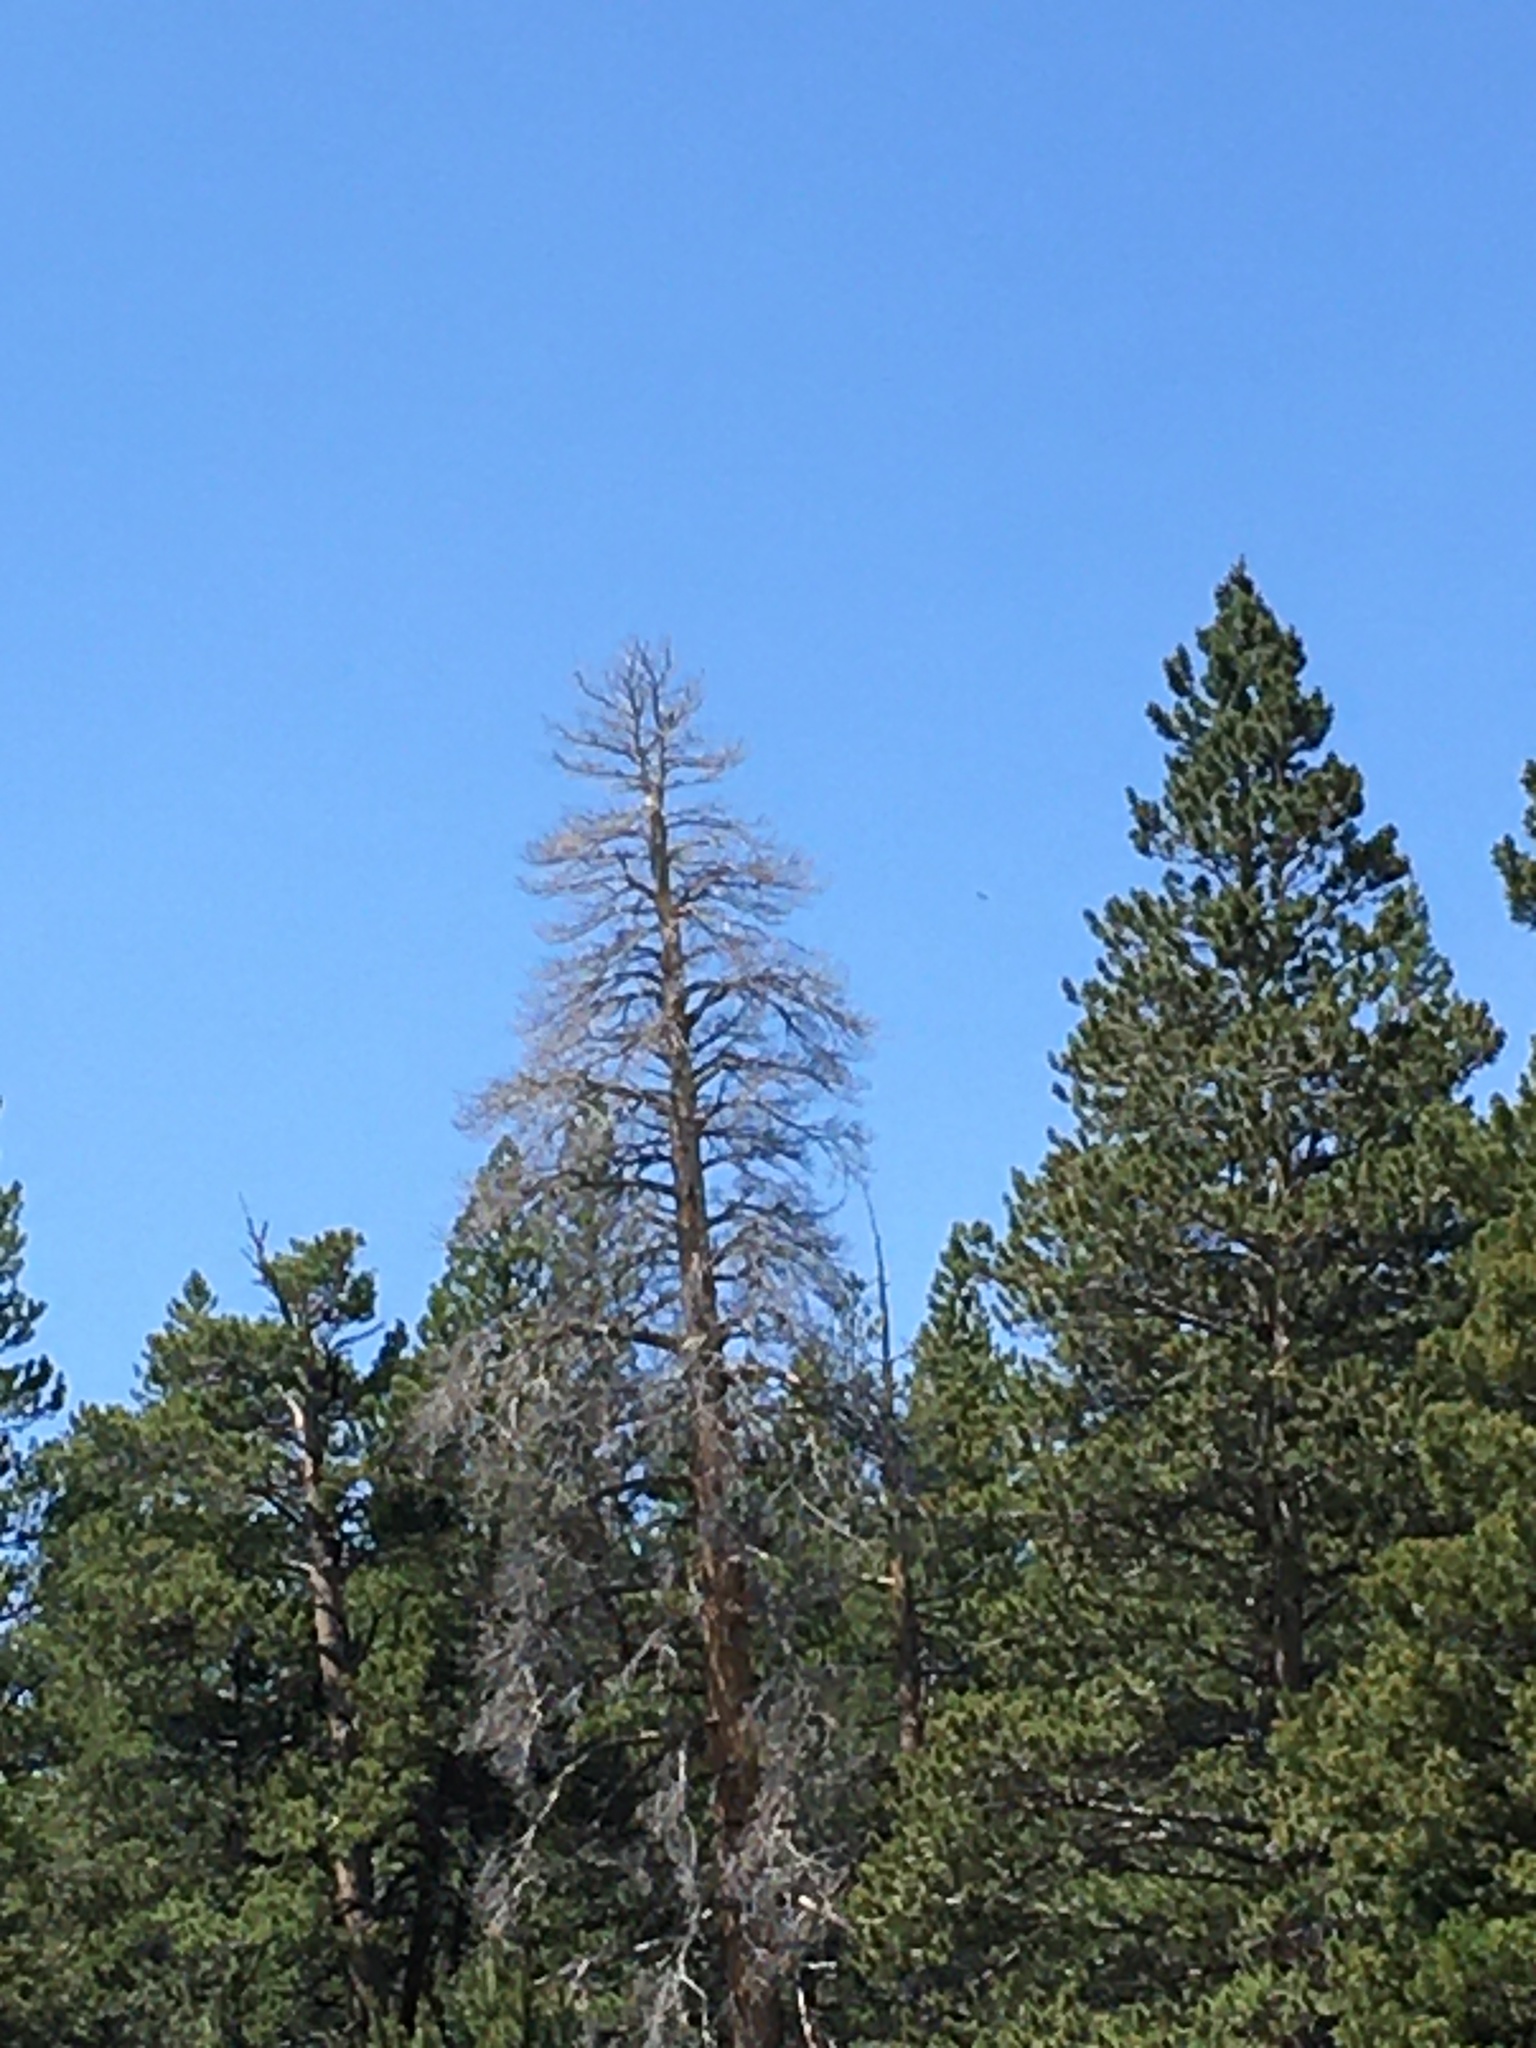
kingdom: Animalia
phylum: Chordata
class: Aves
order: Passeriformes
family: Corvidae
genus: Nucifraga
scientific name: Nucifraga columbiana
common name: Clark's nutcracker
